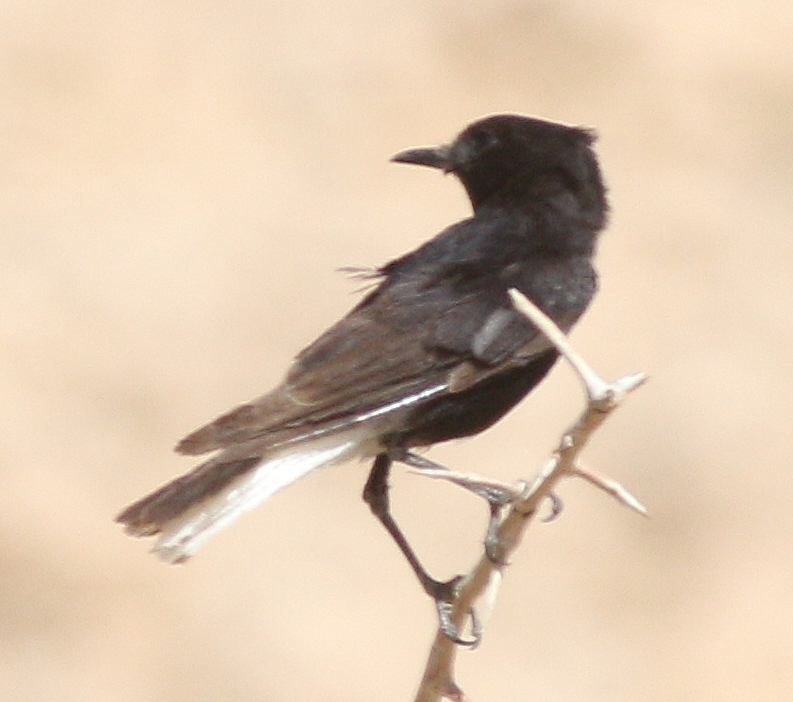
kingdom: Animalia
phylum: Chordata
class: Aves
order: Passeriformes
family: Muscicapidae
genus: Oenanthe
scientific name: Oenanthe leucopyga
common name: White-crowned wheatear
